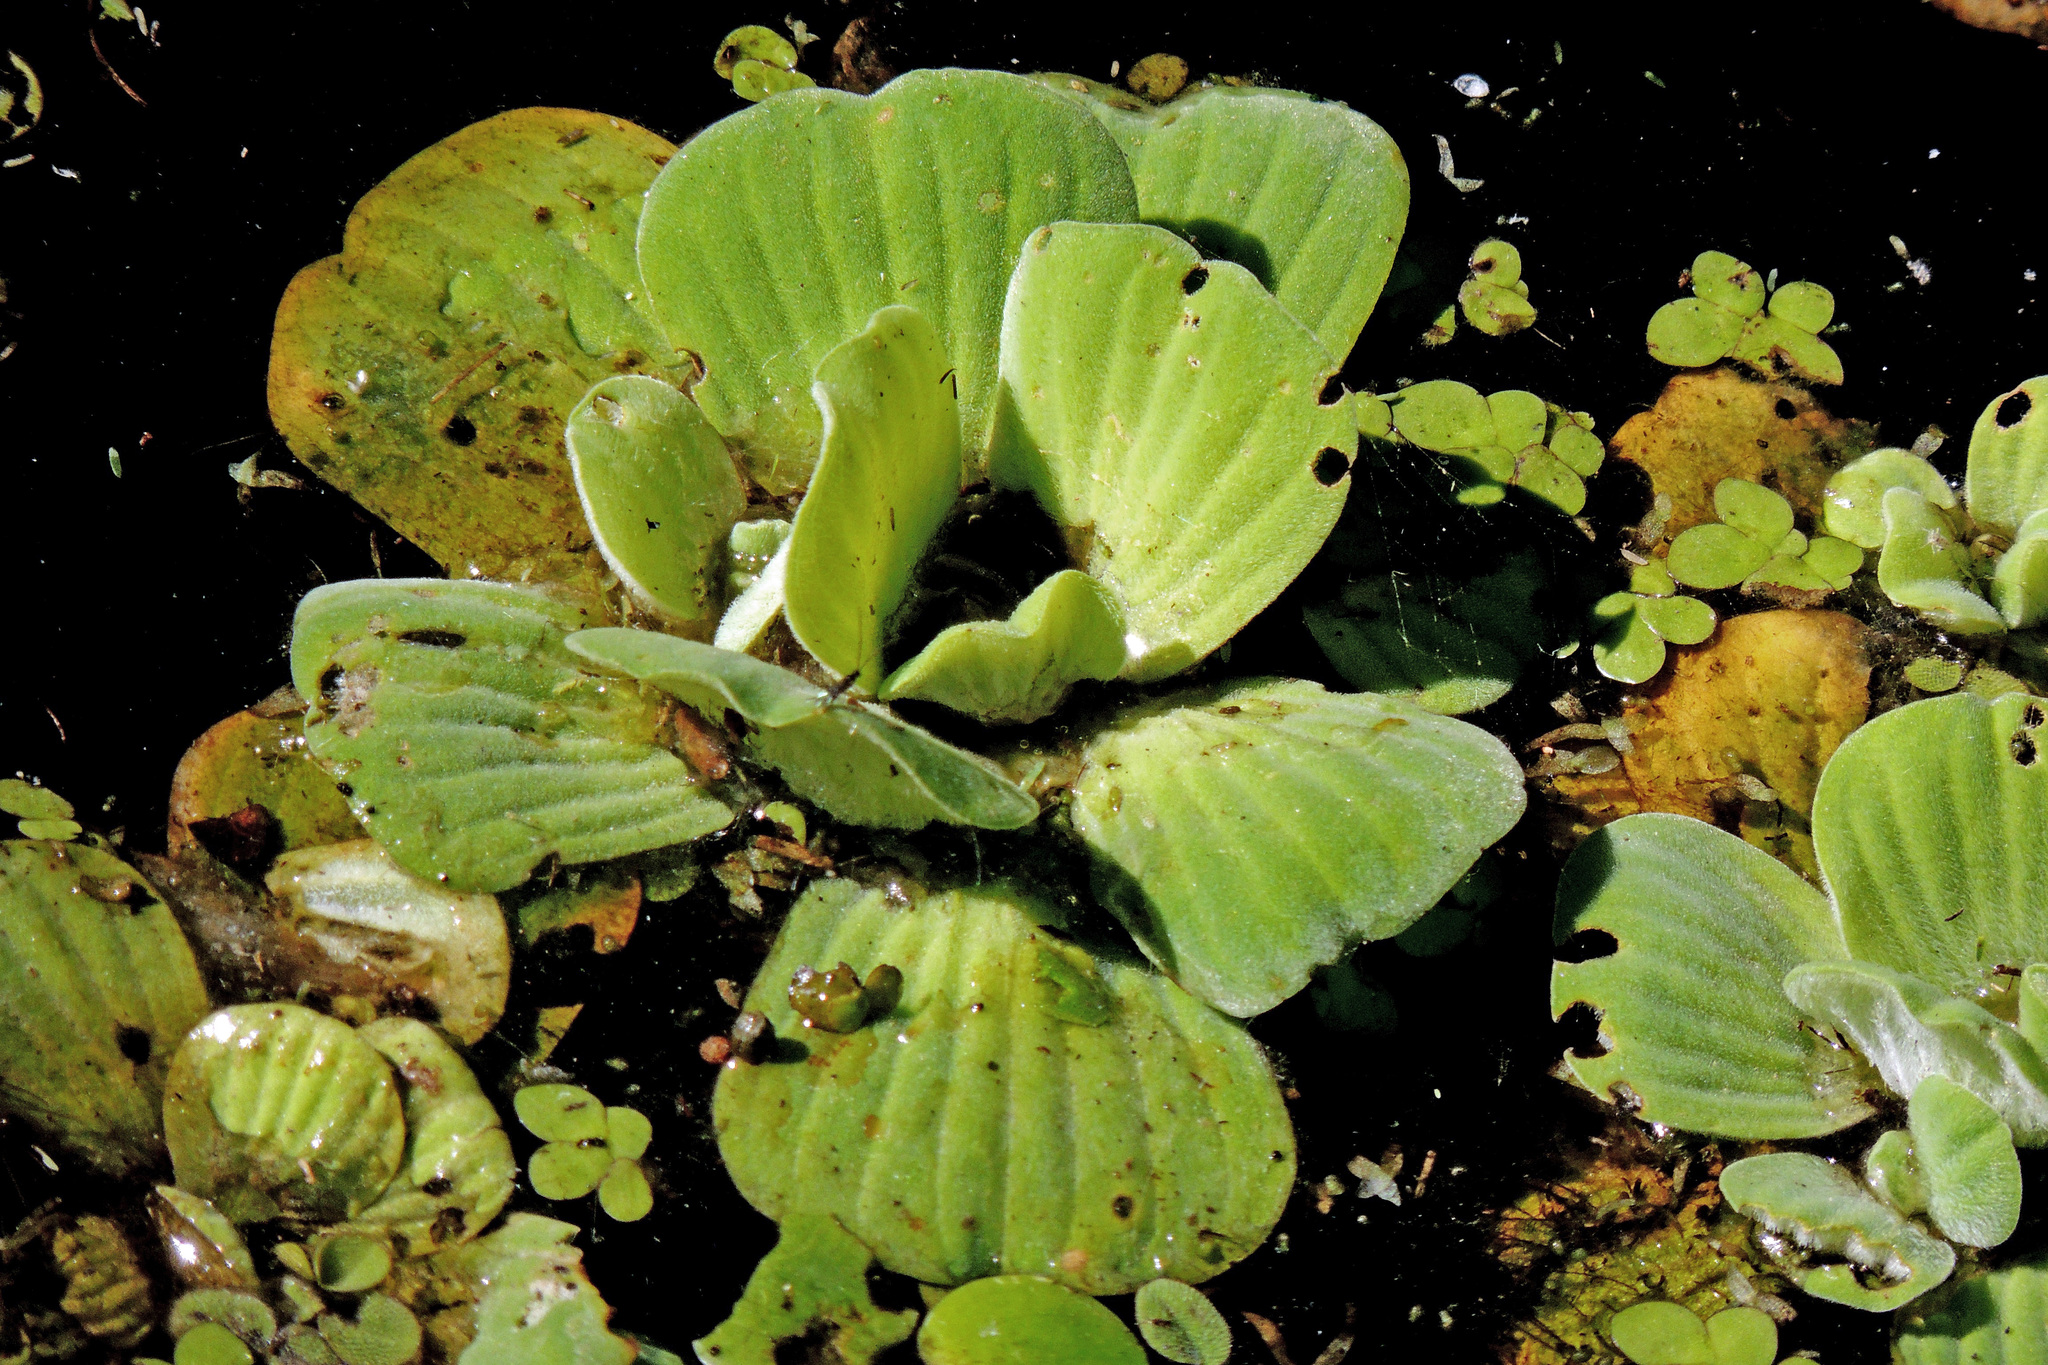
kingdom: Plantae
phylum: Tracheophyta
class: Liliopsida
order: Alismatales
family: Araceae
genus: Pistia
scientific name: Pistia stratiotes
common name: Water lettuce
